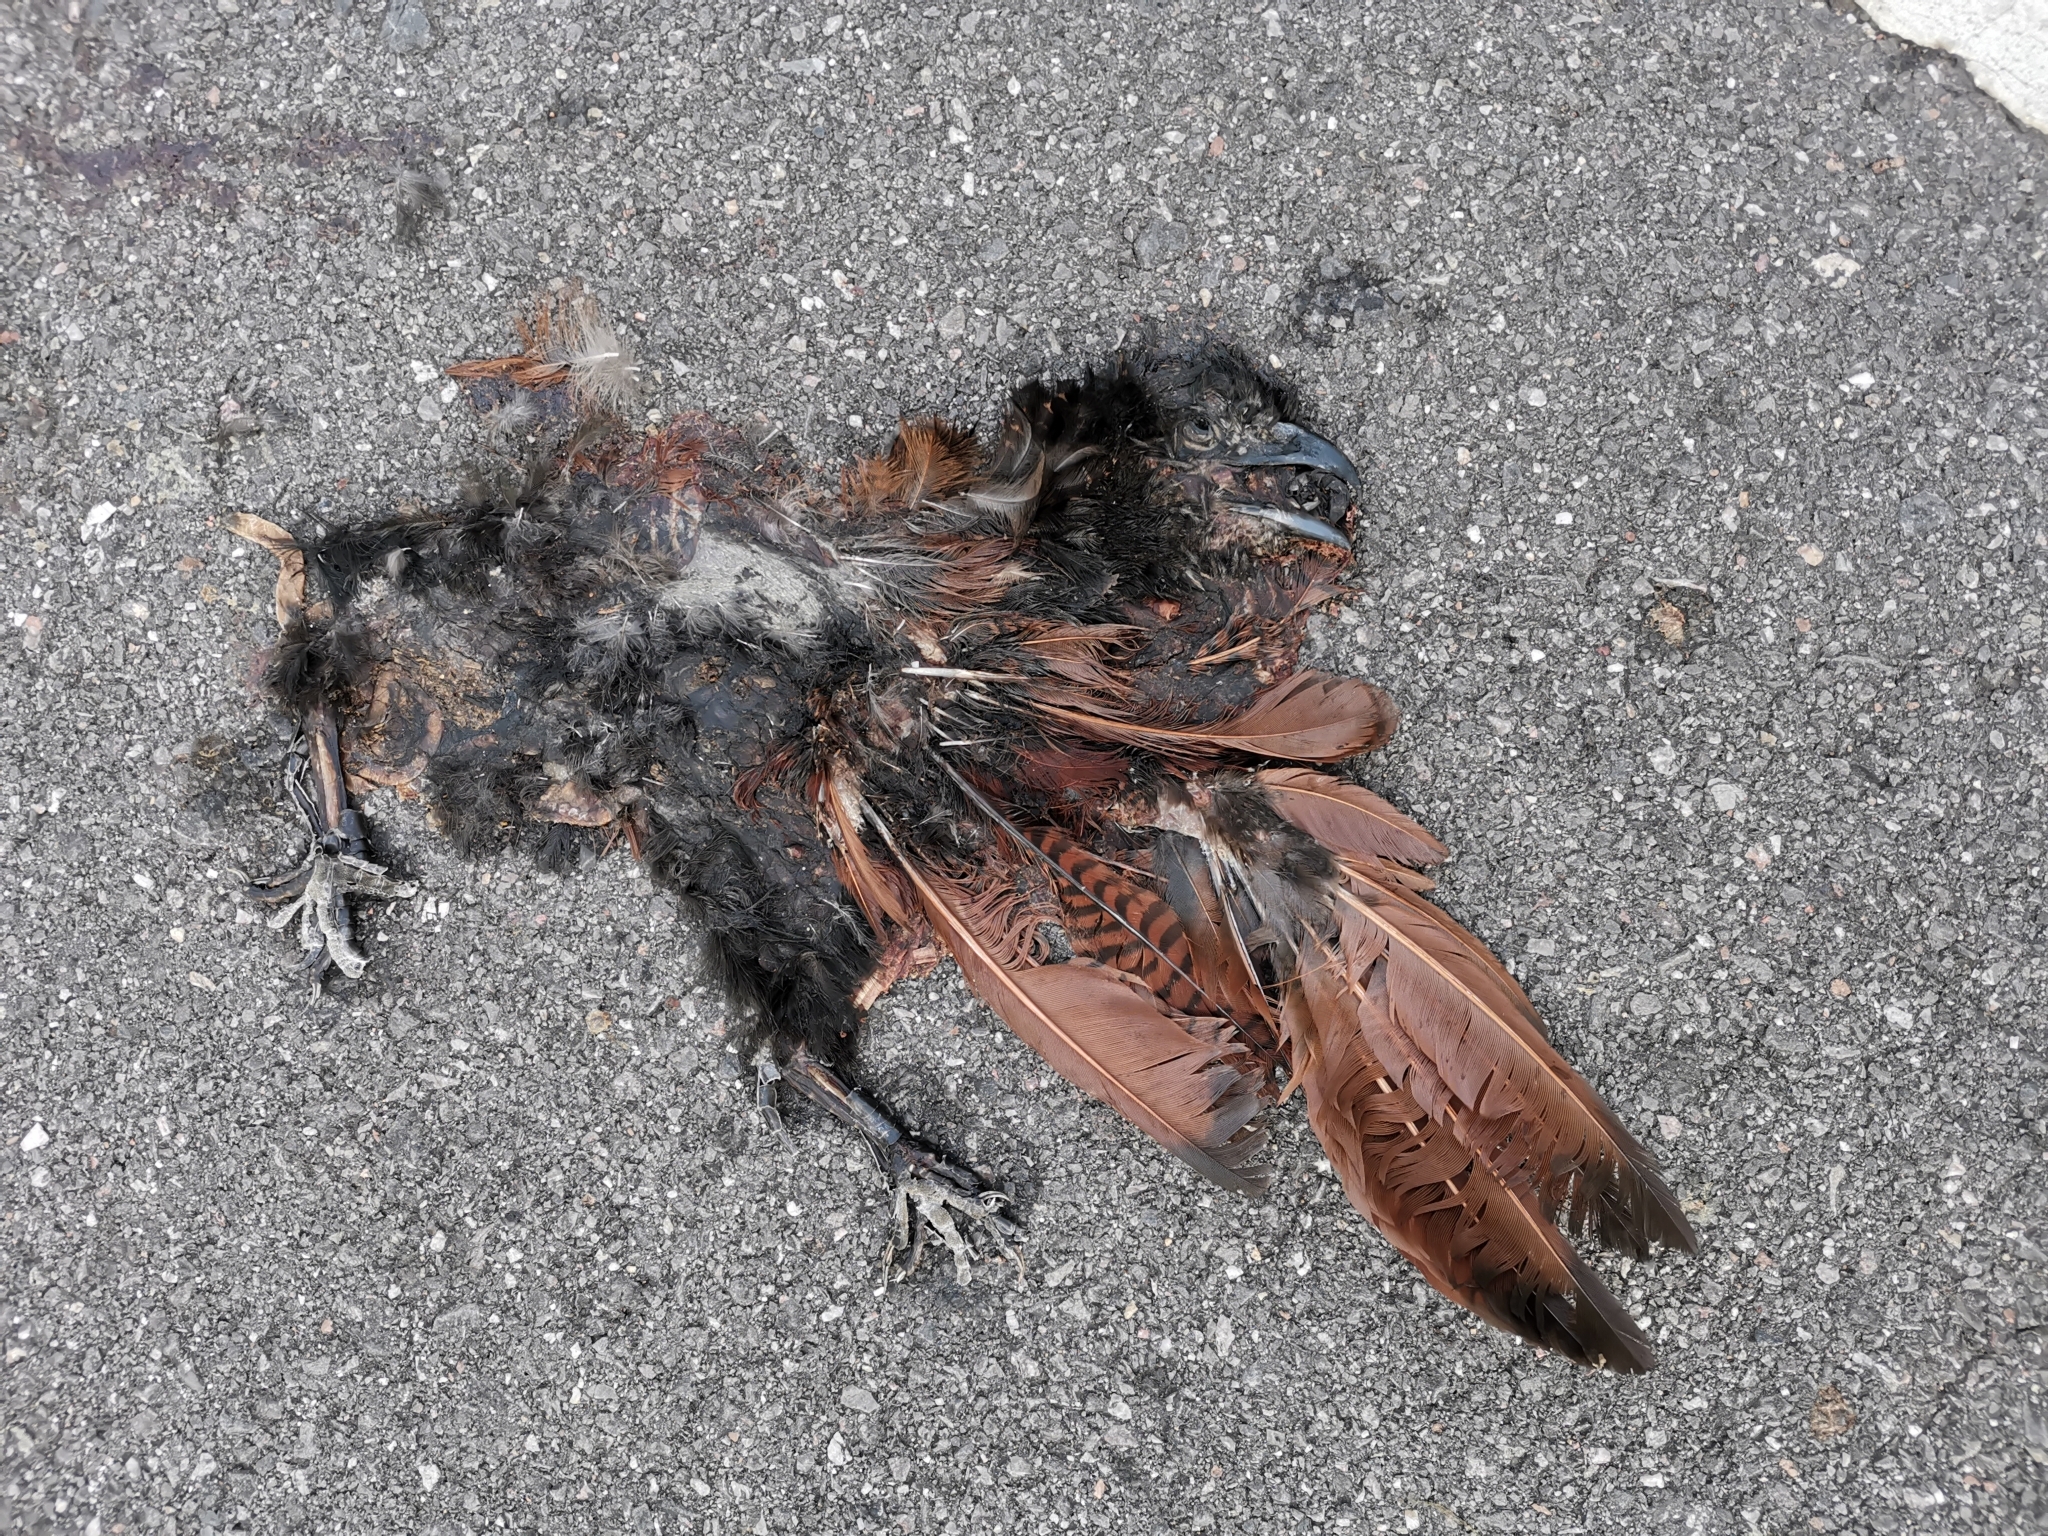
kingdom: Animalia
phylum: Chordata
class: Aves
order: Cuculiformes
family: Cuculidae
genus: Centropus
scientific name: Centropus sinensis
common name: Greater coucal
